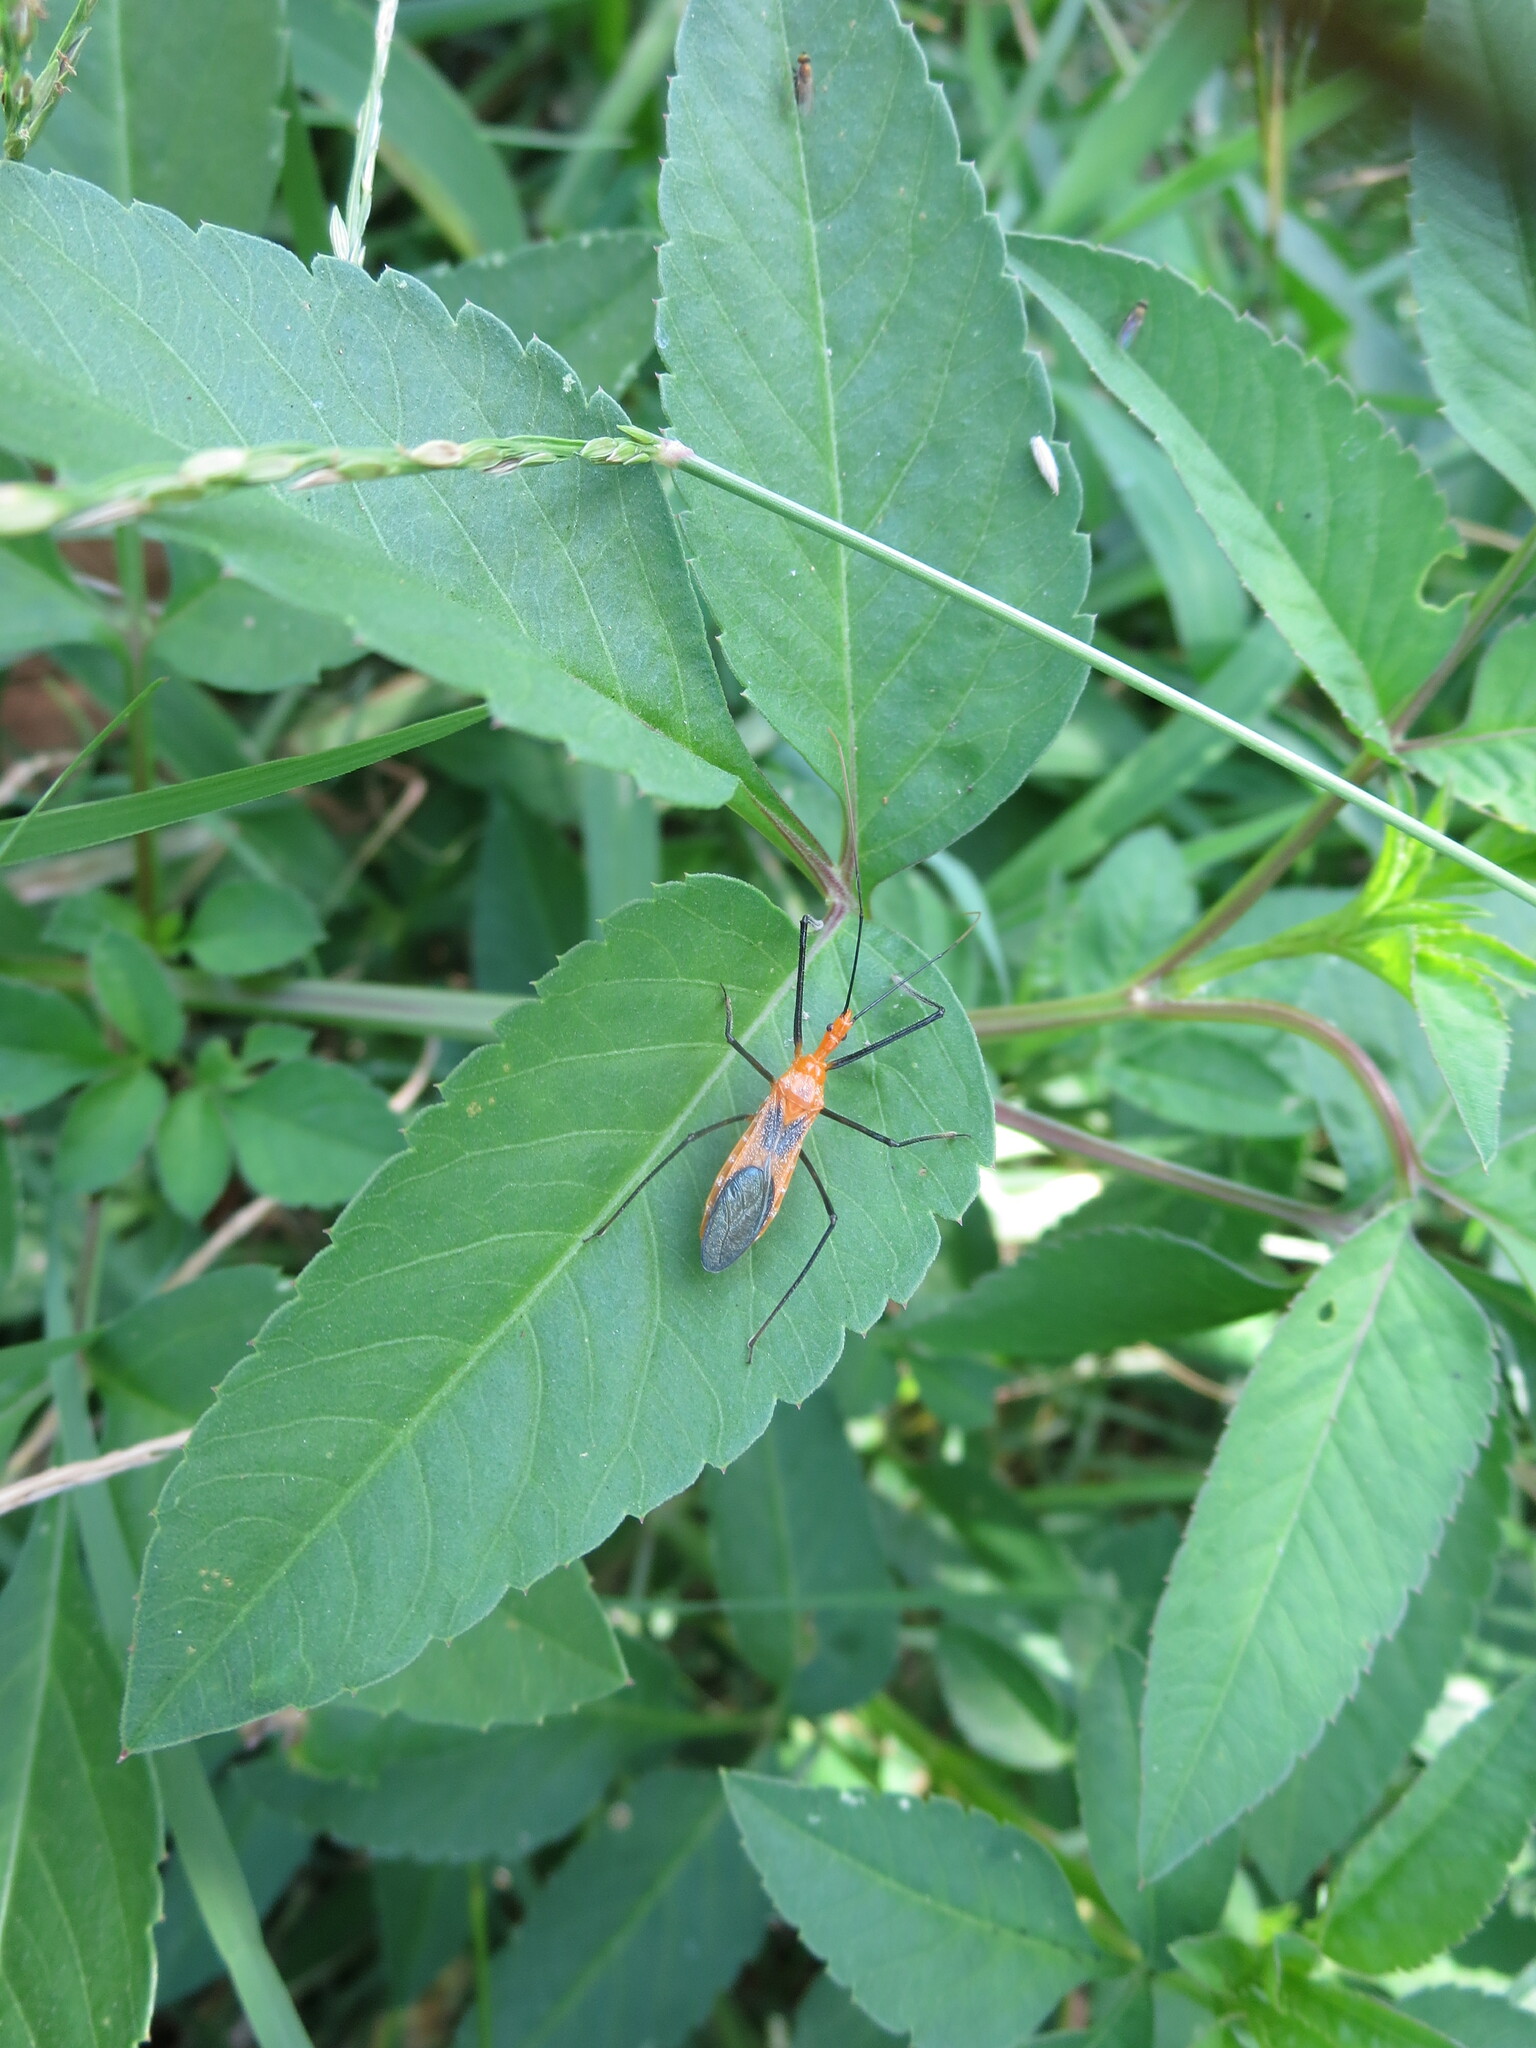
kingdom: Animalia
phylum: Arthropoda
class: Insecta
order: Hemiptera
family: Reduviidae
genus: Zelus
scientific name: Zelus longipes
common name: Milkweed assassin bug
